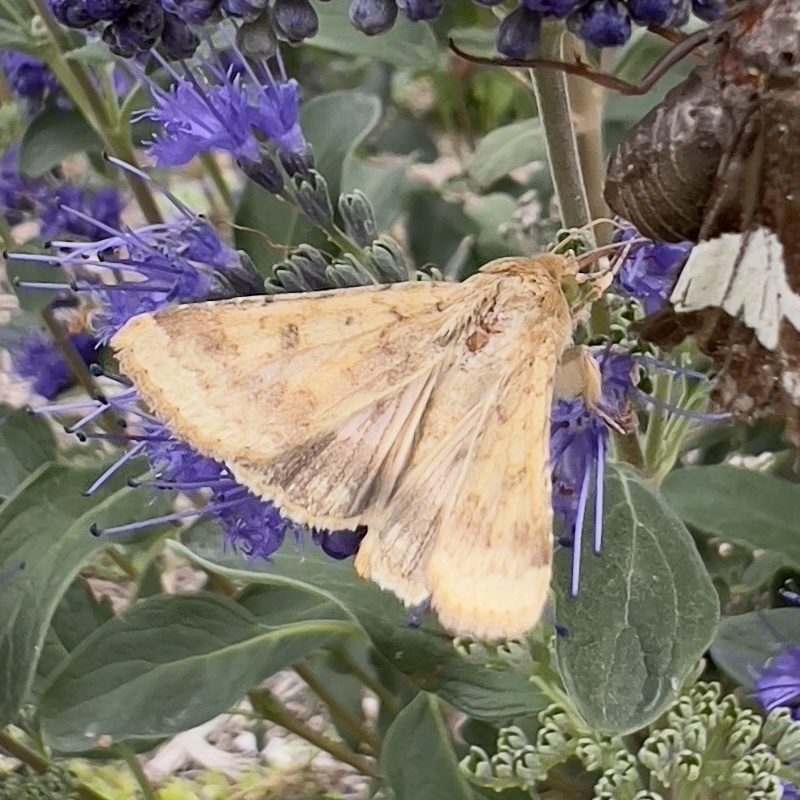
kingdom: Animalia
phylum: Arthropoda
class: Insecta
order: Lepidoptera
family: Noctuidae
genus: Helicoverpa
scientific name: Helicoverpa zea
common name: Bollworm
